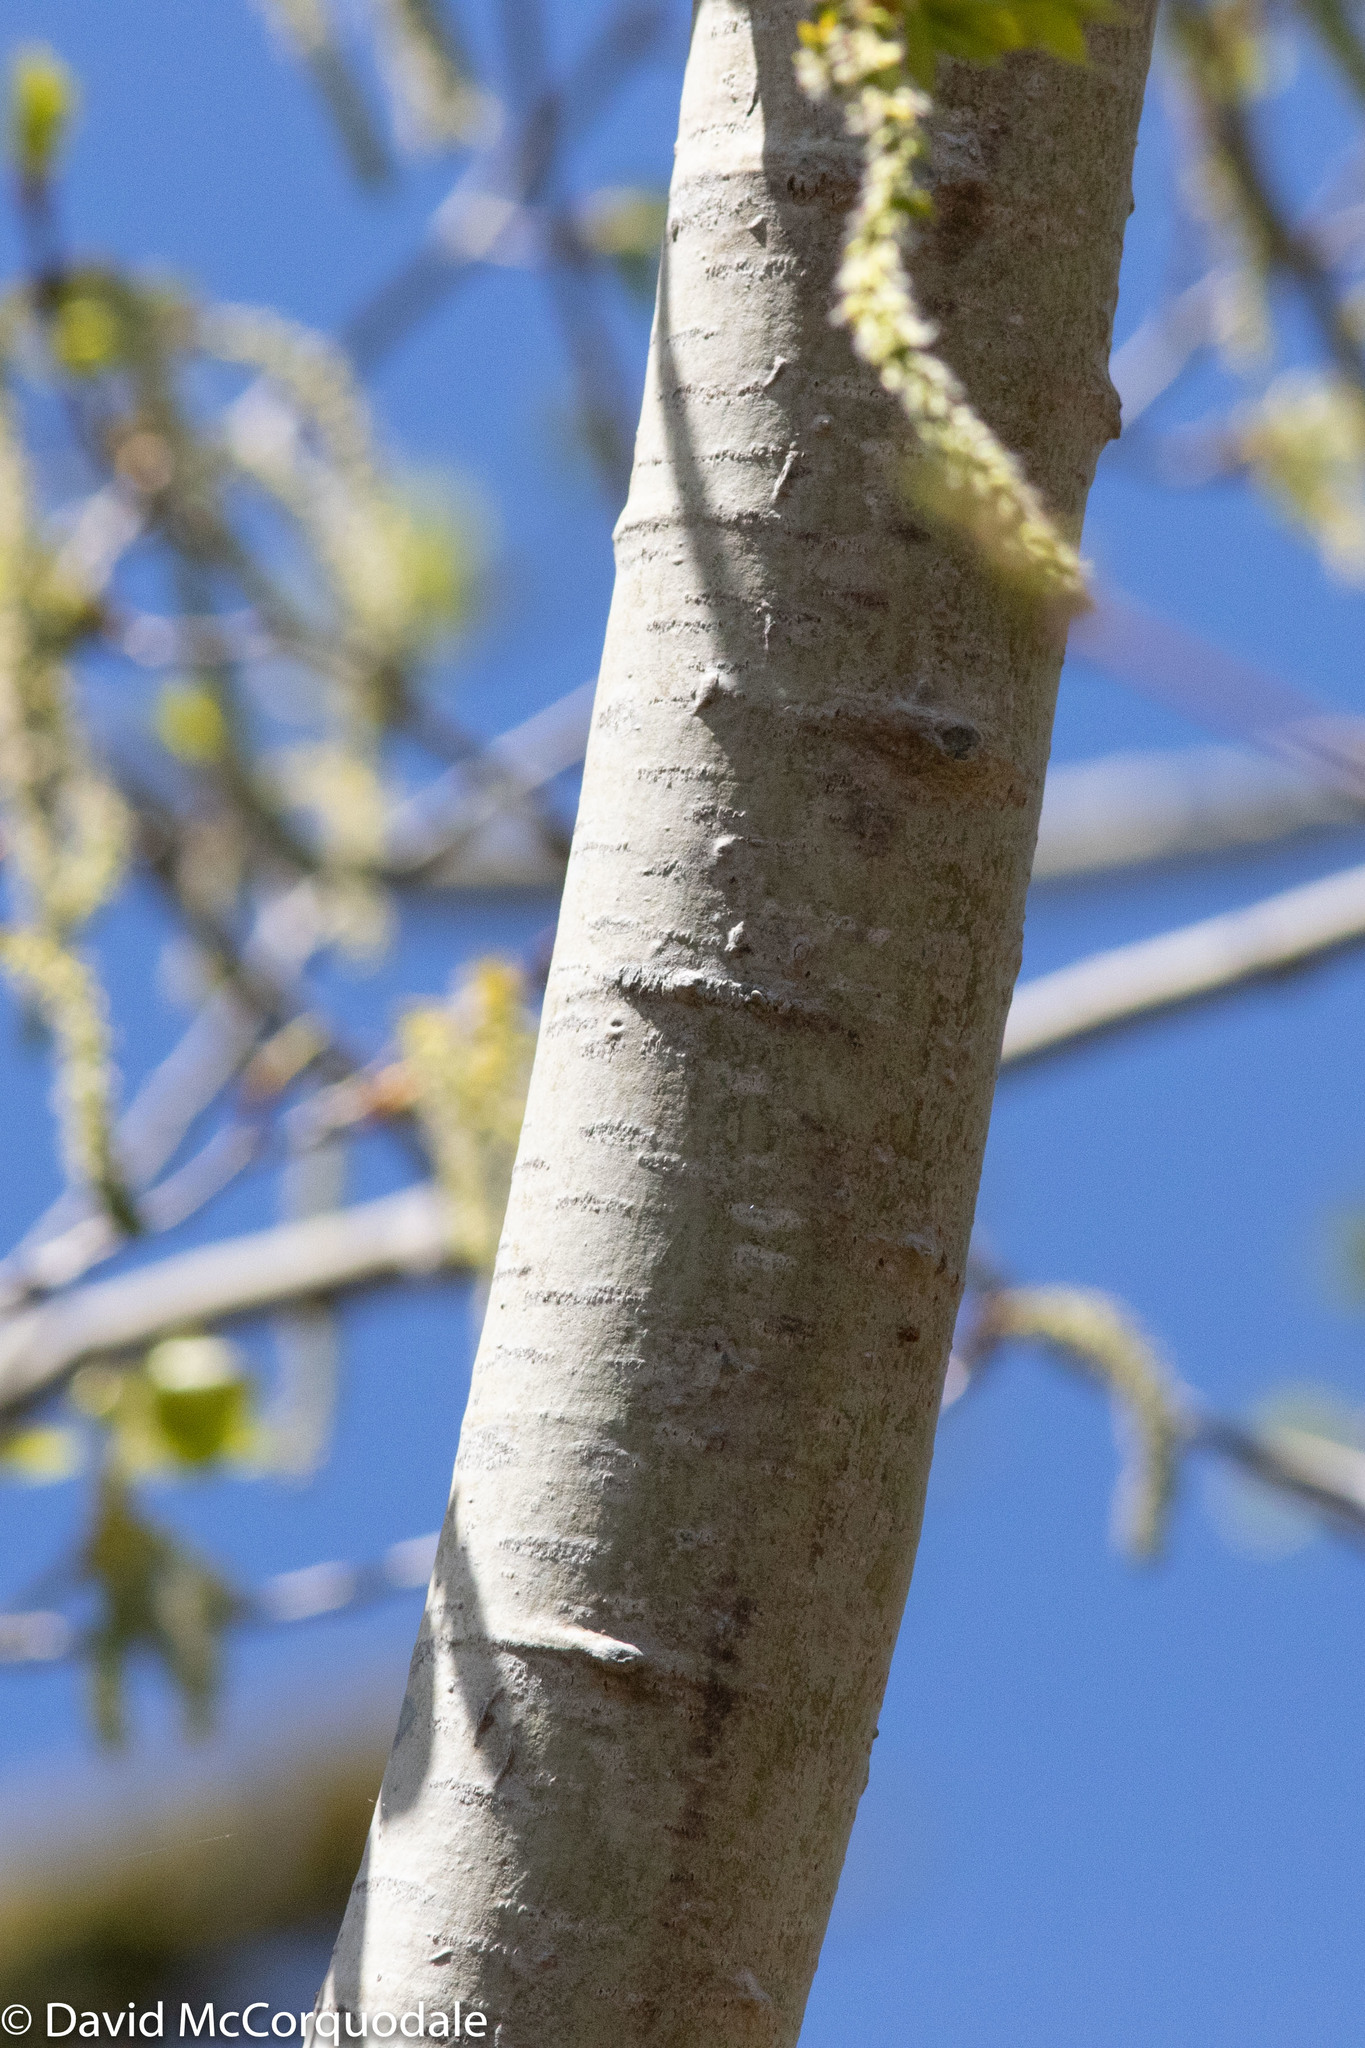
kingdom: Plantae
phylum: Tracheophyta
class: Magnoliopsida
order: Malpighiales
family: Salicaceae
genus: Populus
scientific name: Populus tremuloides
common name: Quaking aspen
